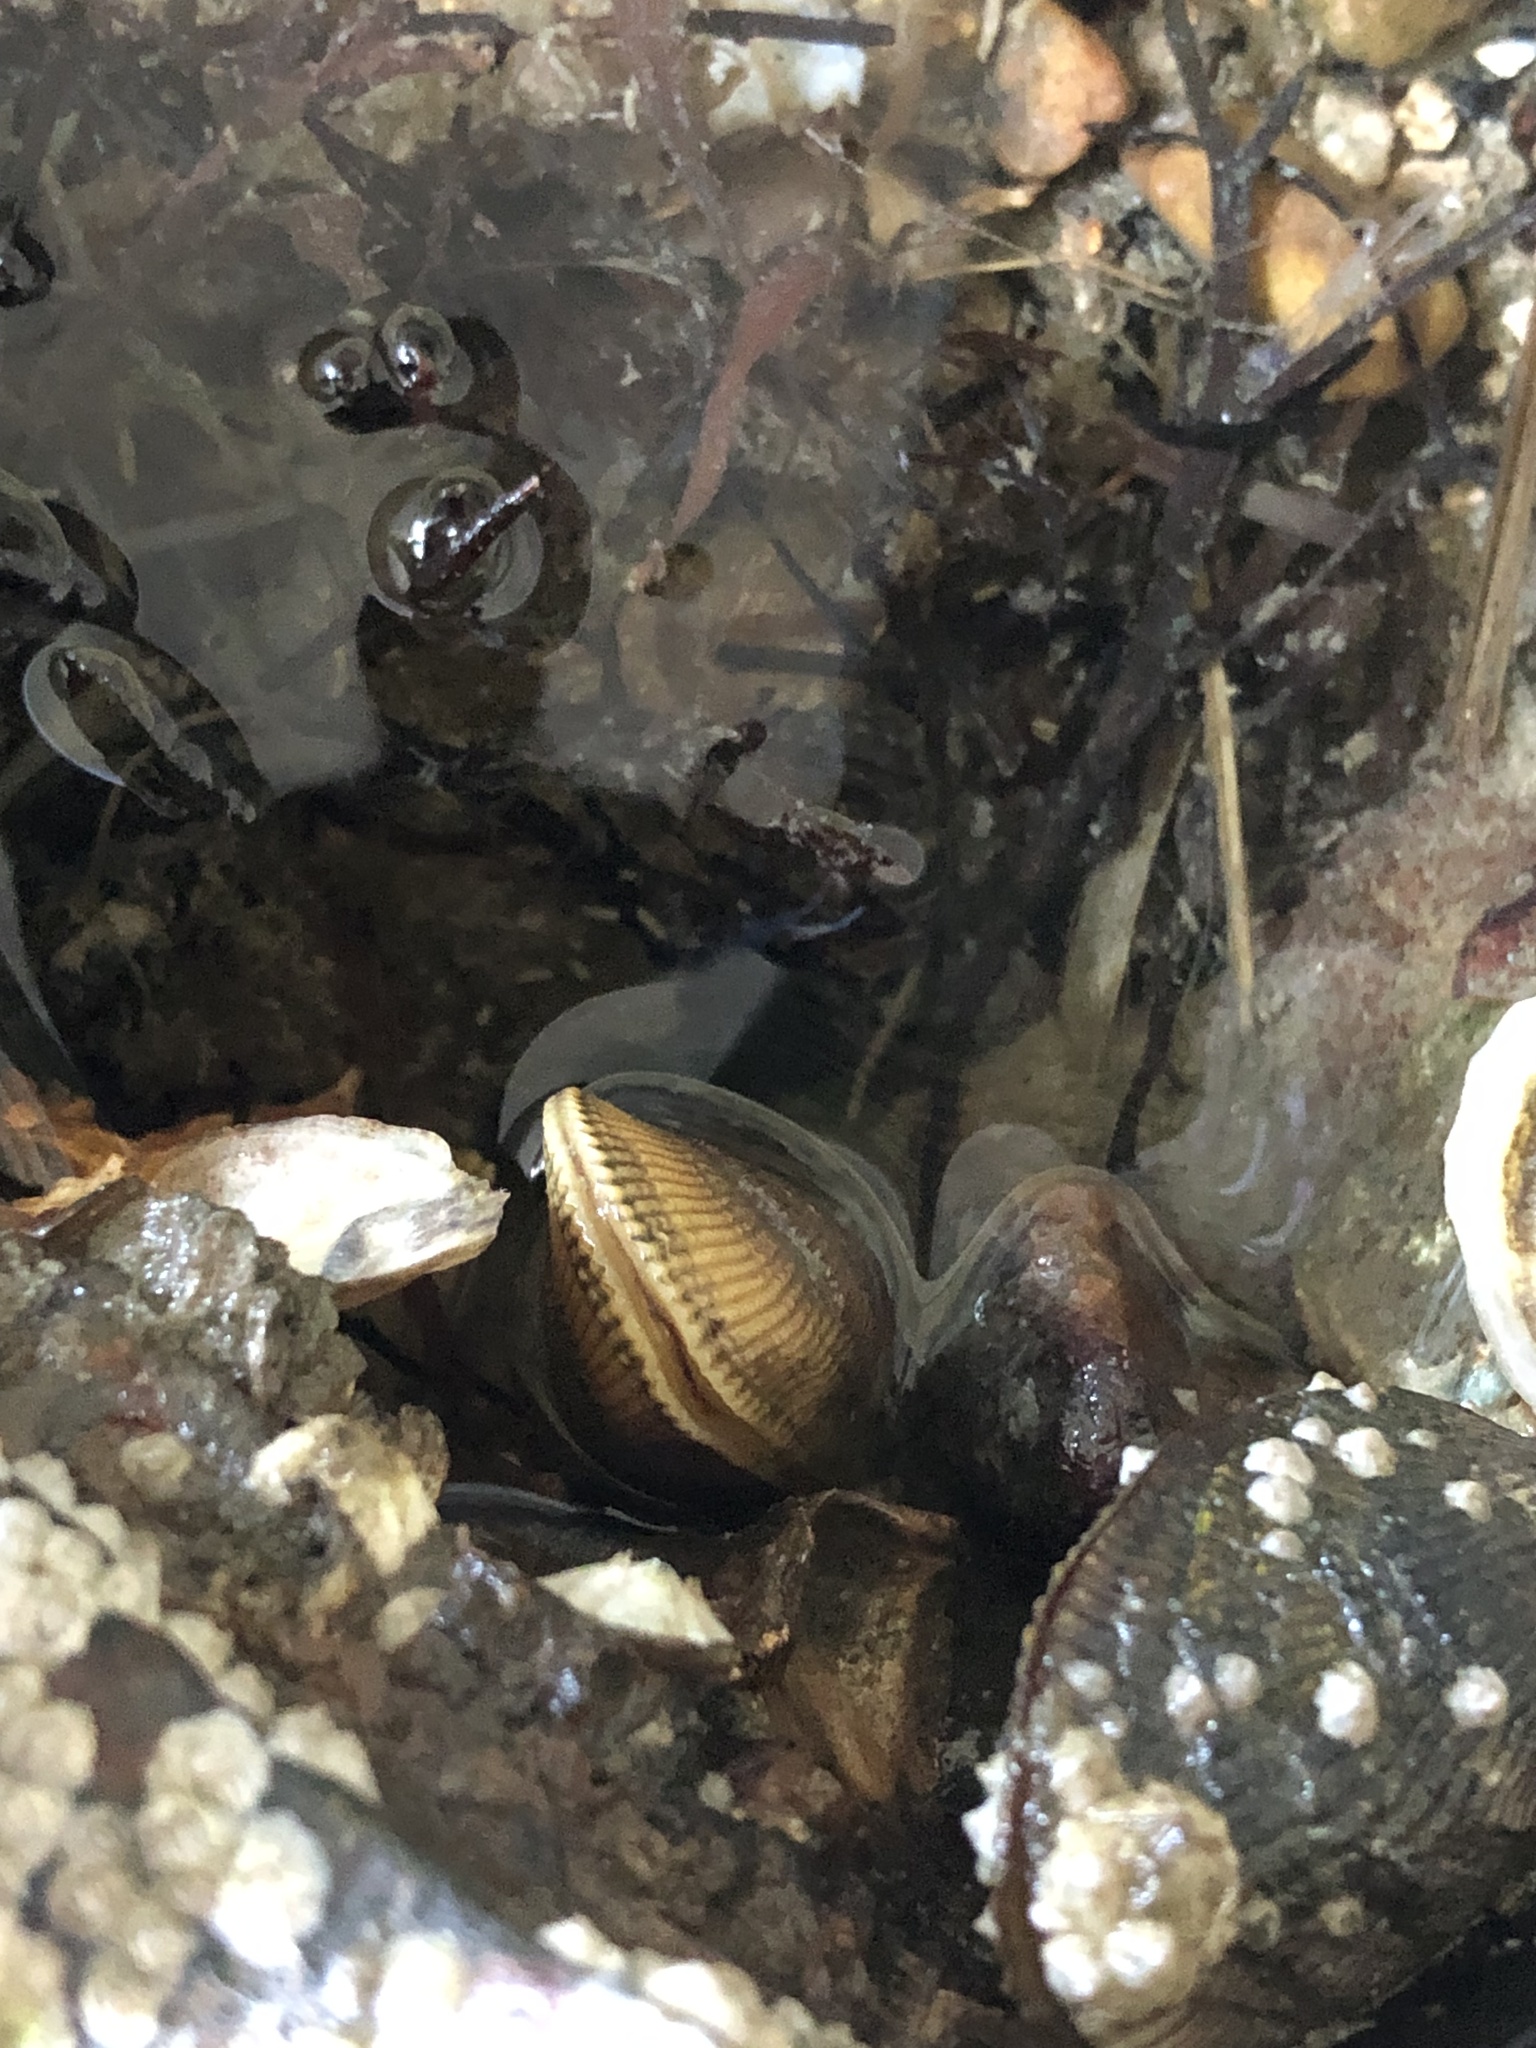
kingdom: Animalia
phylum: Mollusca
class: Bivalvia
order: Mytilida
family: Mytilidae
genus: Geukensia
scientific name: Geukensia demissa
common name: Ribbed mussel
